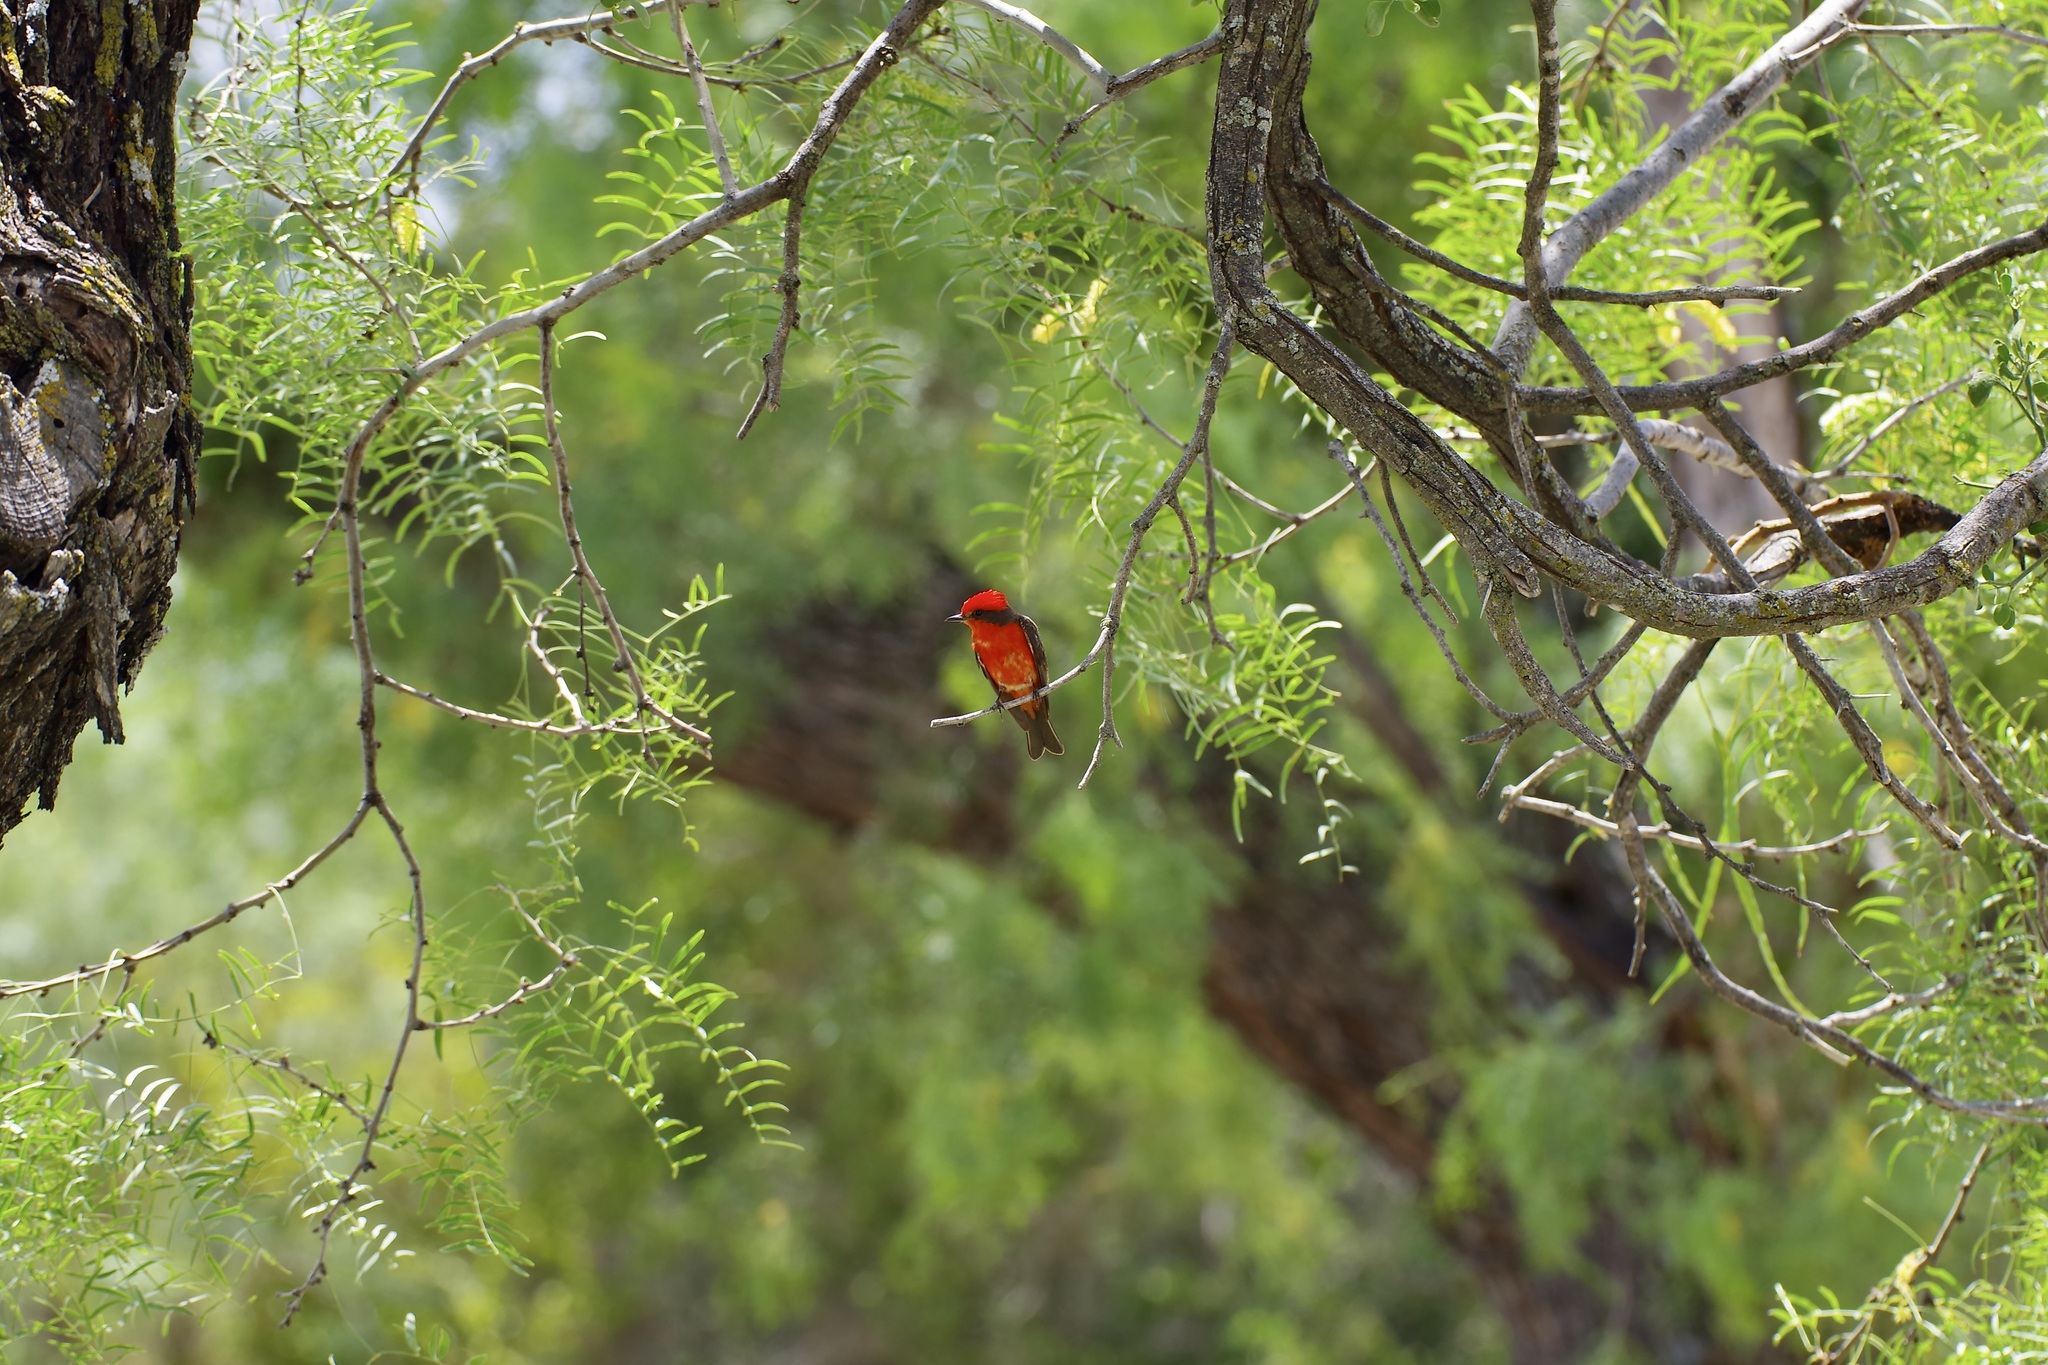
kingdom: Animalia
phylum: Chordata
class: Aves
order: Passeriformes
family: Tyrannidae
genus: Pyrocephalus
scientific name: Pyrocephalus rubinus
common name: Vermilion flycatcher
